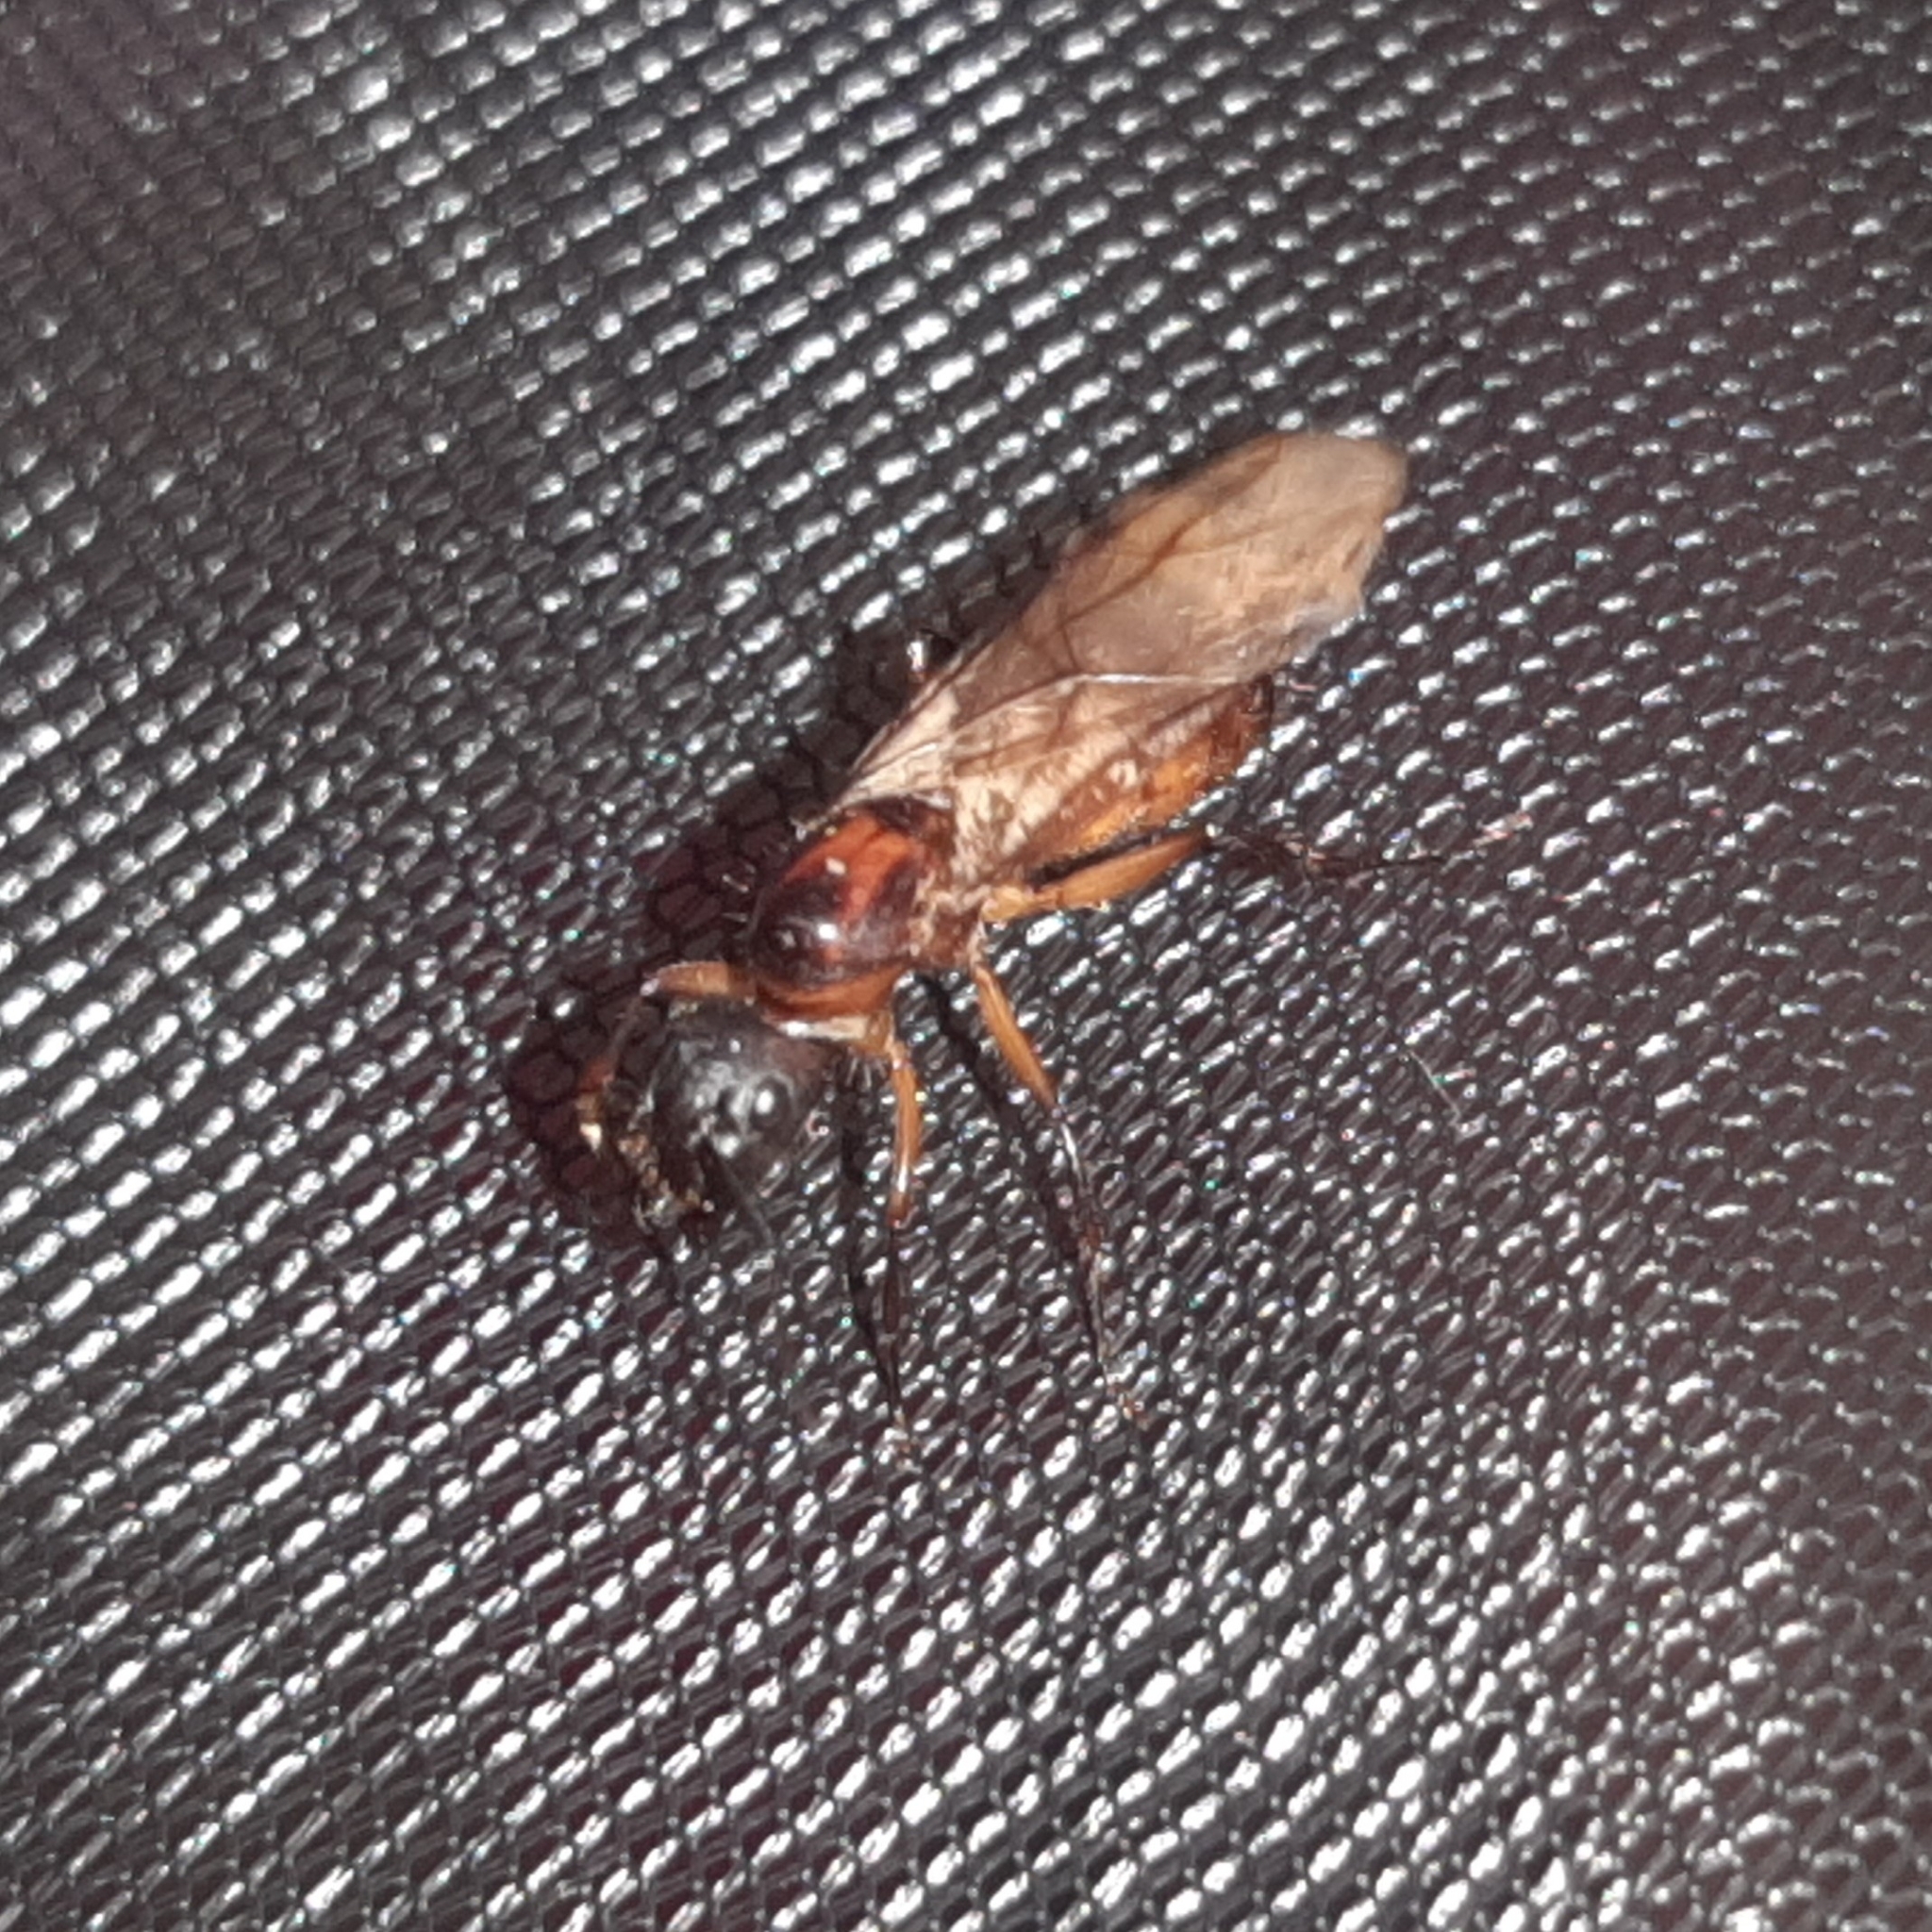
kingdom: Animalia
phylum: Arthropoda
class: Insecta
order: Hymenoptera
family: Formicidae
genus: Camponotus
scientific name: Camponotus atriceps
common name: Florida carpenter ant
